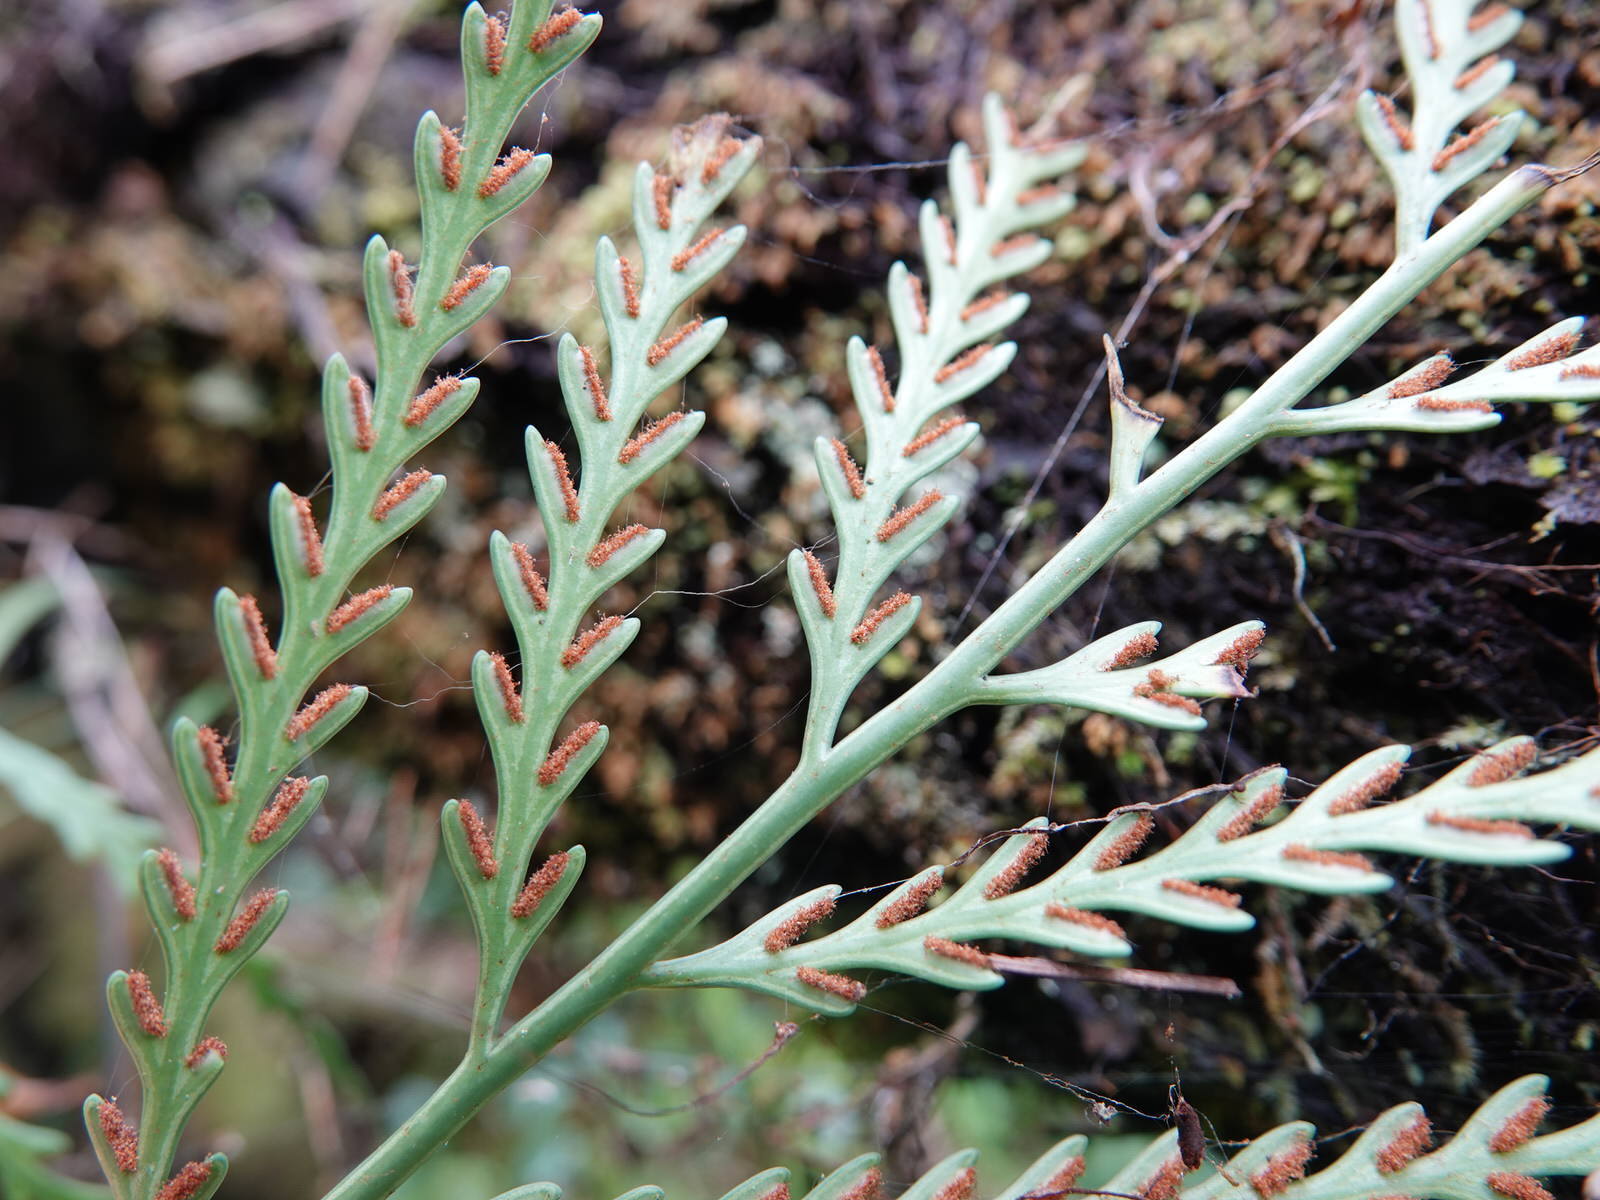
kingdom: Plantae
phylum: Tracheophyta
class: Polypodiopsida
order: Polypodiales
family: Aspleniaceae
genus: Asplenium
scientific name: Asplenium flaccidum
